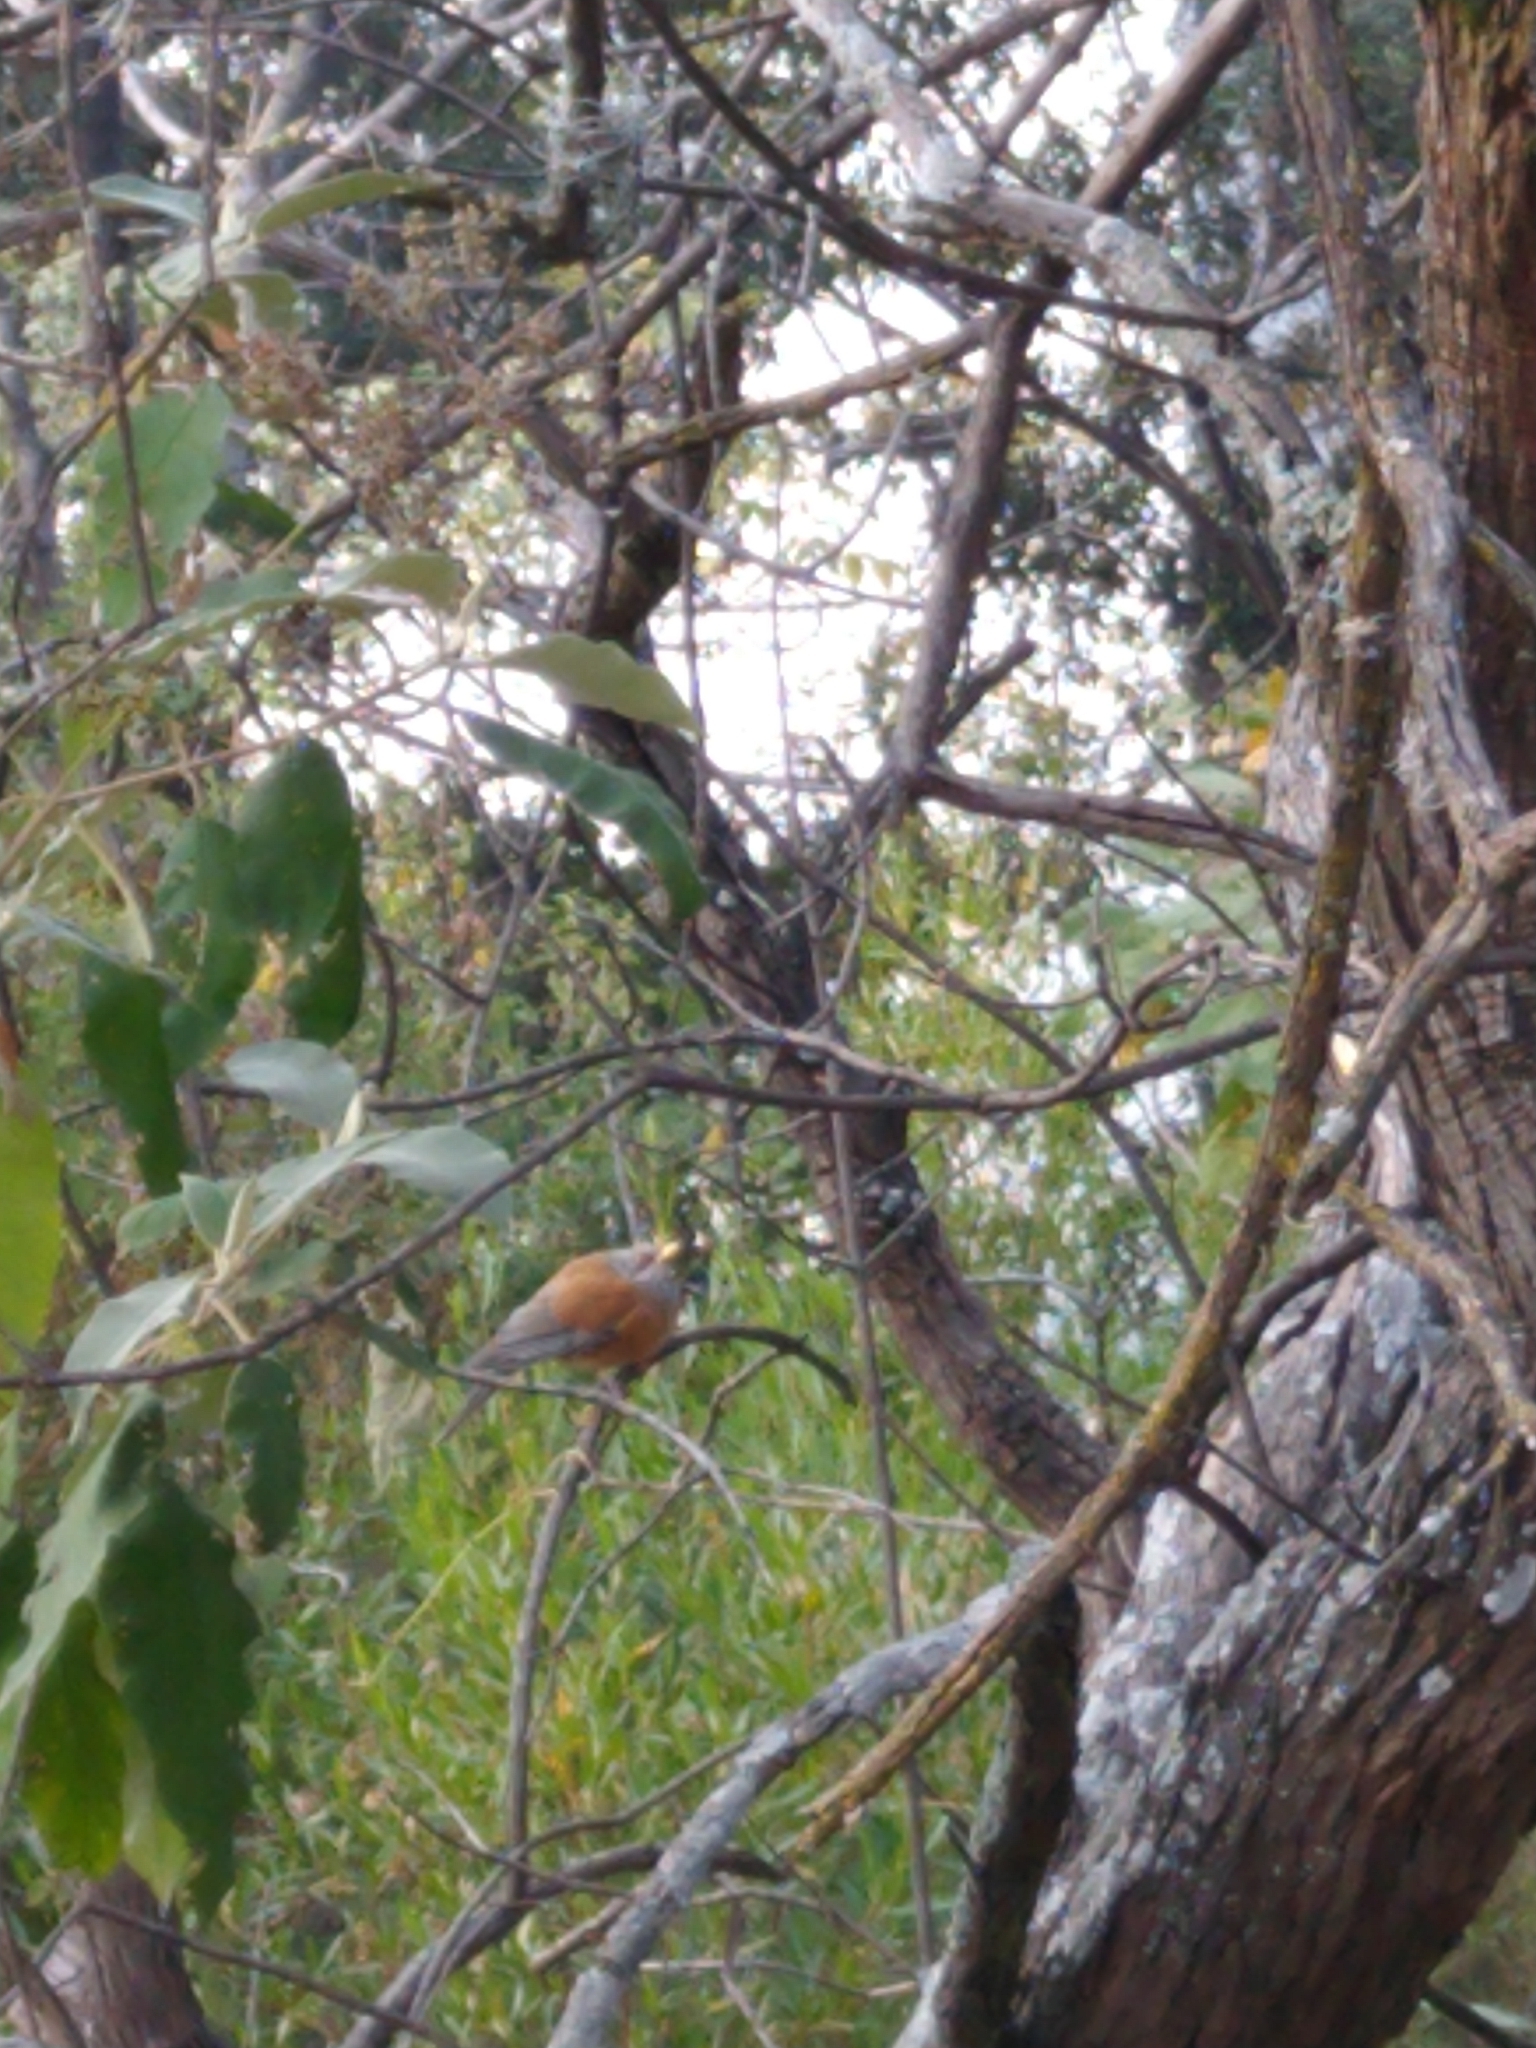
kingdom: Animalia
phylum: Chordata
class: Aves
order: Passeriformes
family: Turdidae
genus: Turdus
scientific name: Turdus rufopalliatus
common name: Rufous-backed robin
